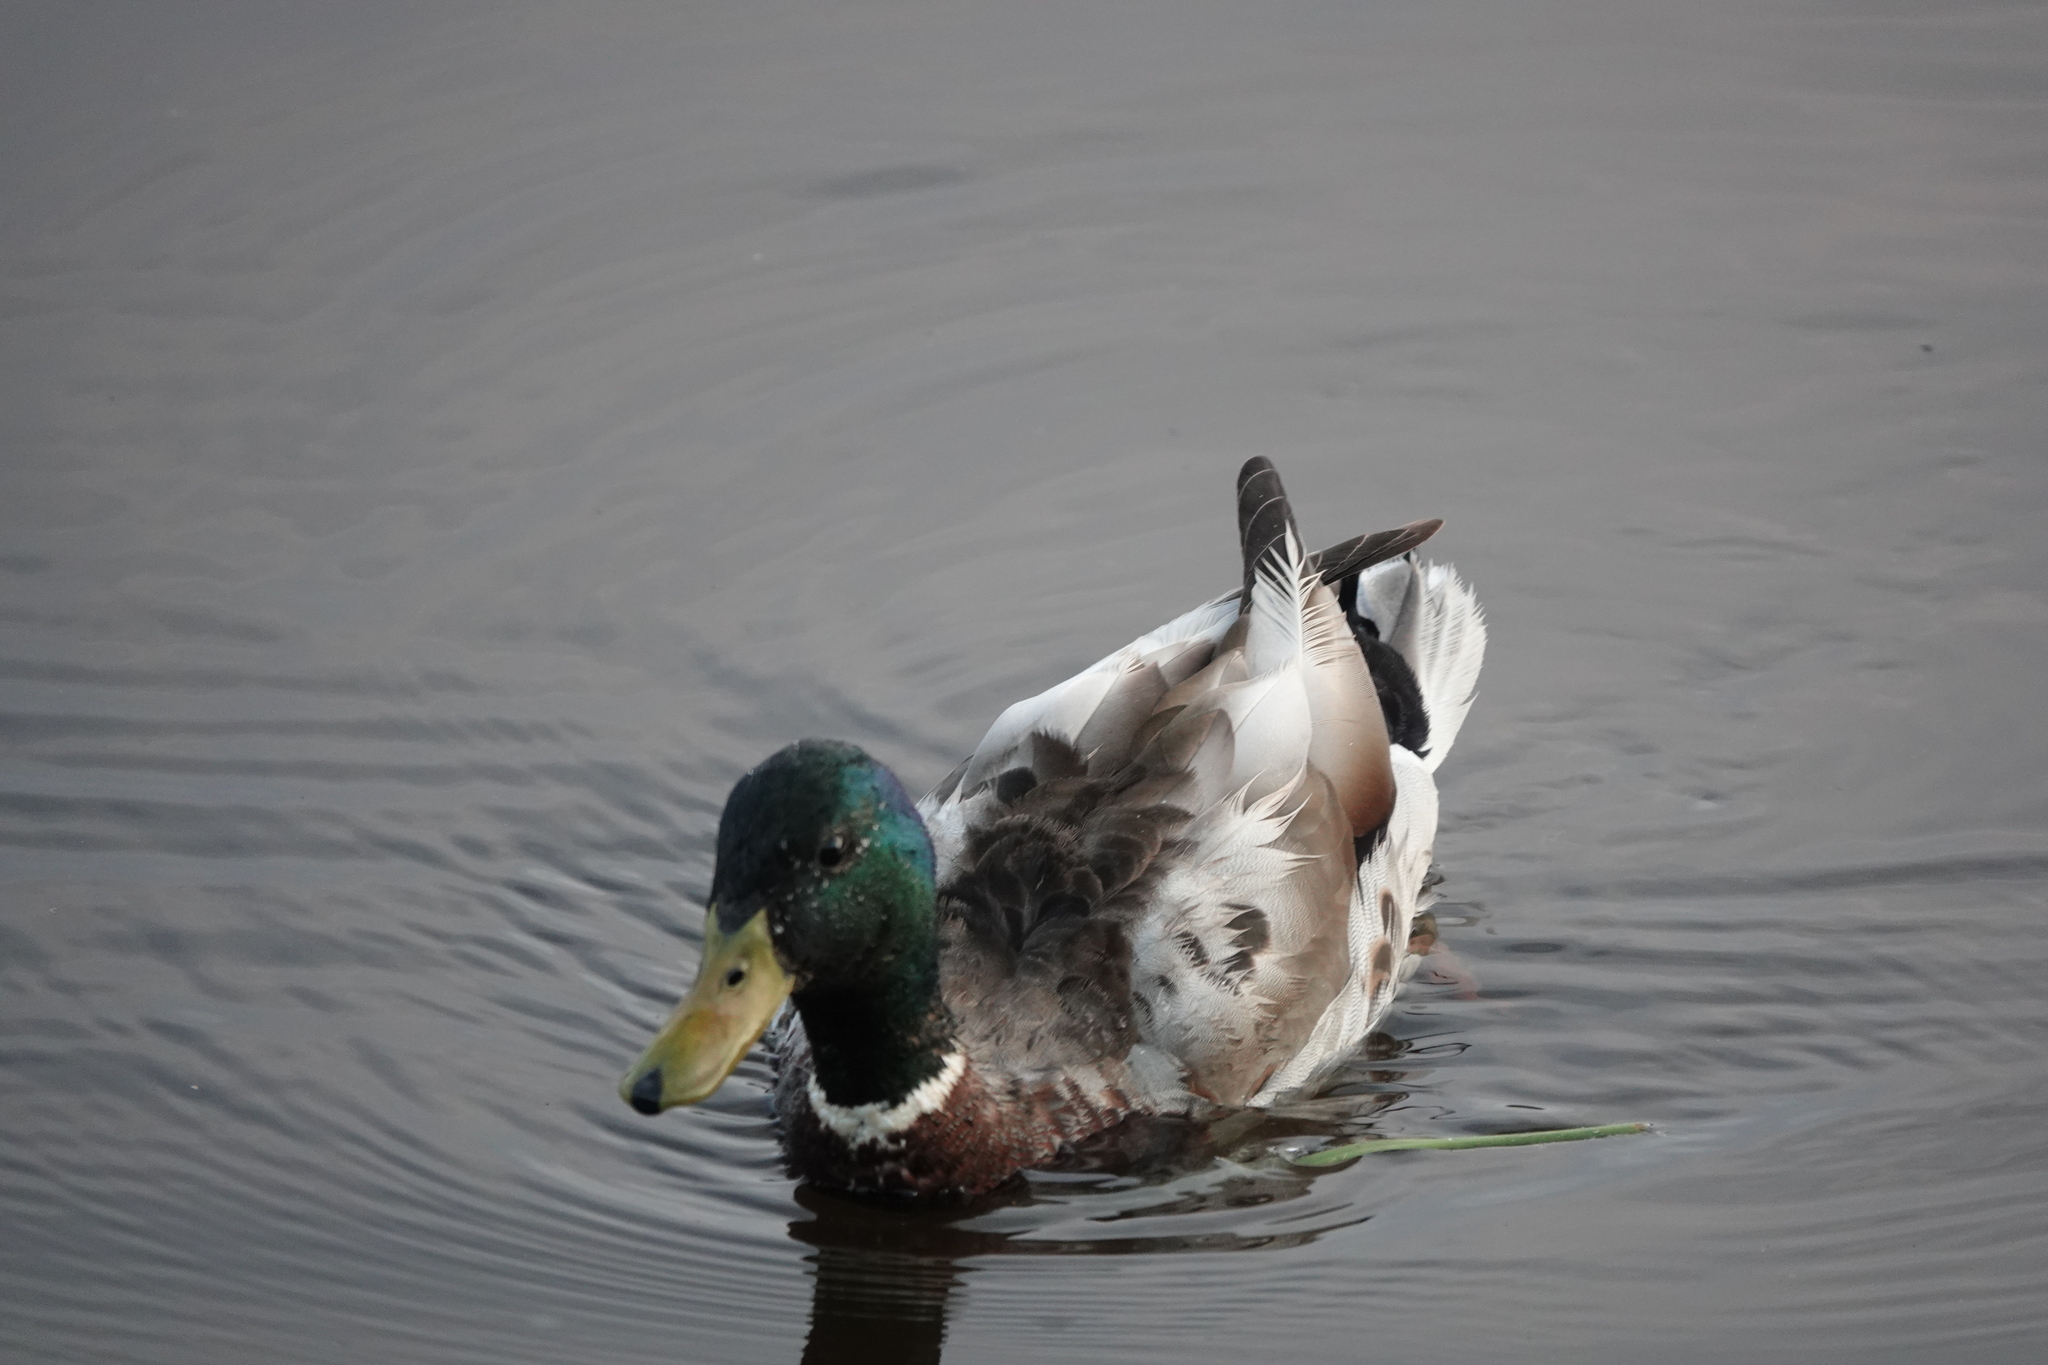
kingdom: Animalia
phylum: Chordata
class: Aves
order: Anseriformes
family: Anatidae
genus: Anas
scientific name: Anas platyrhynchos
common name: Mallard
